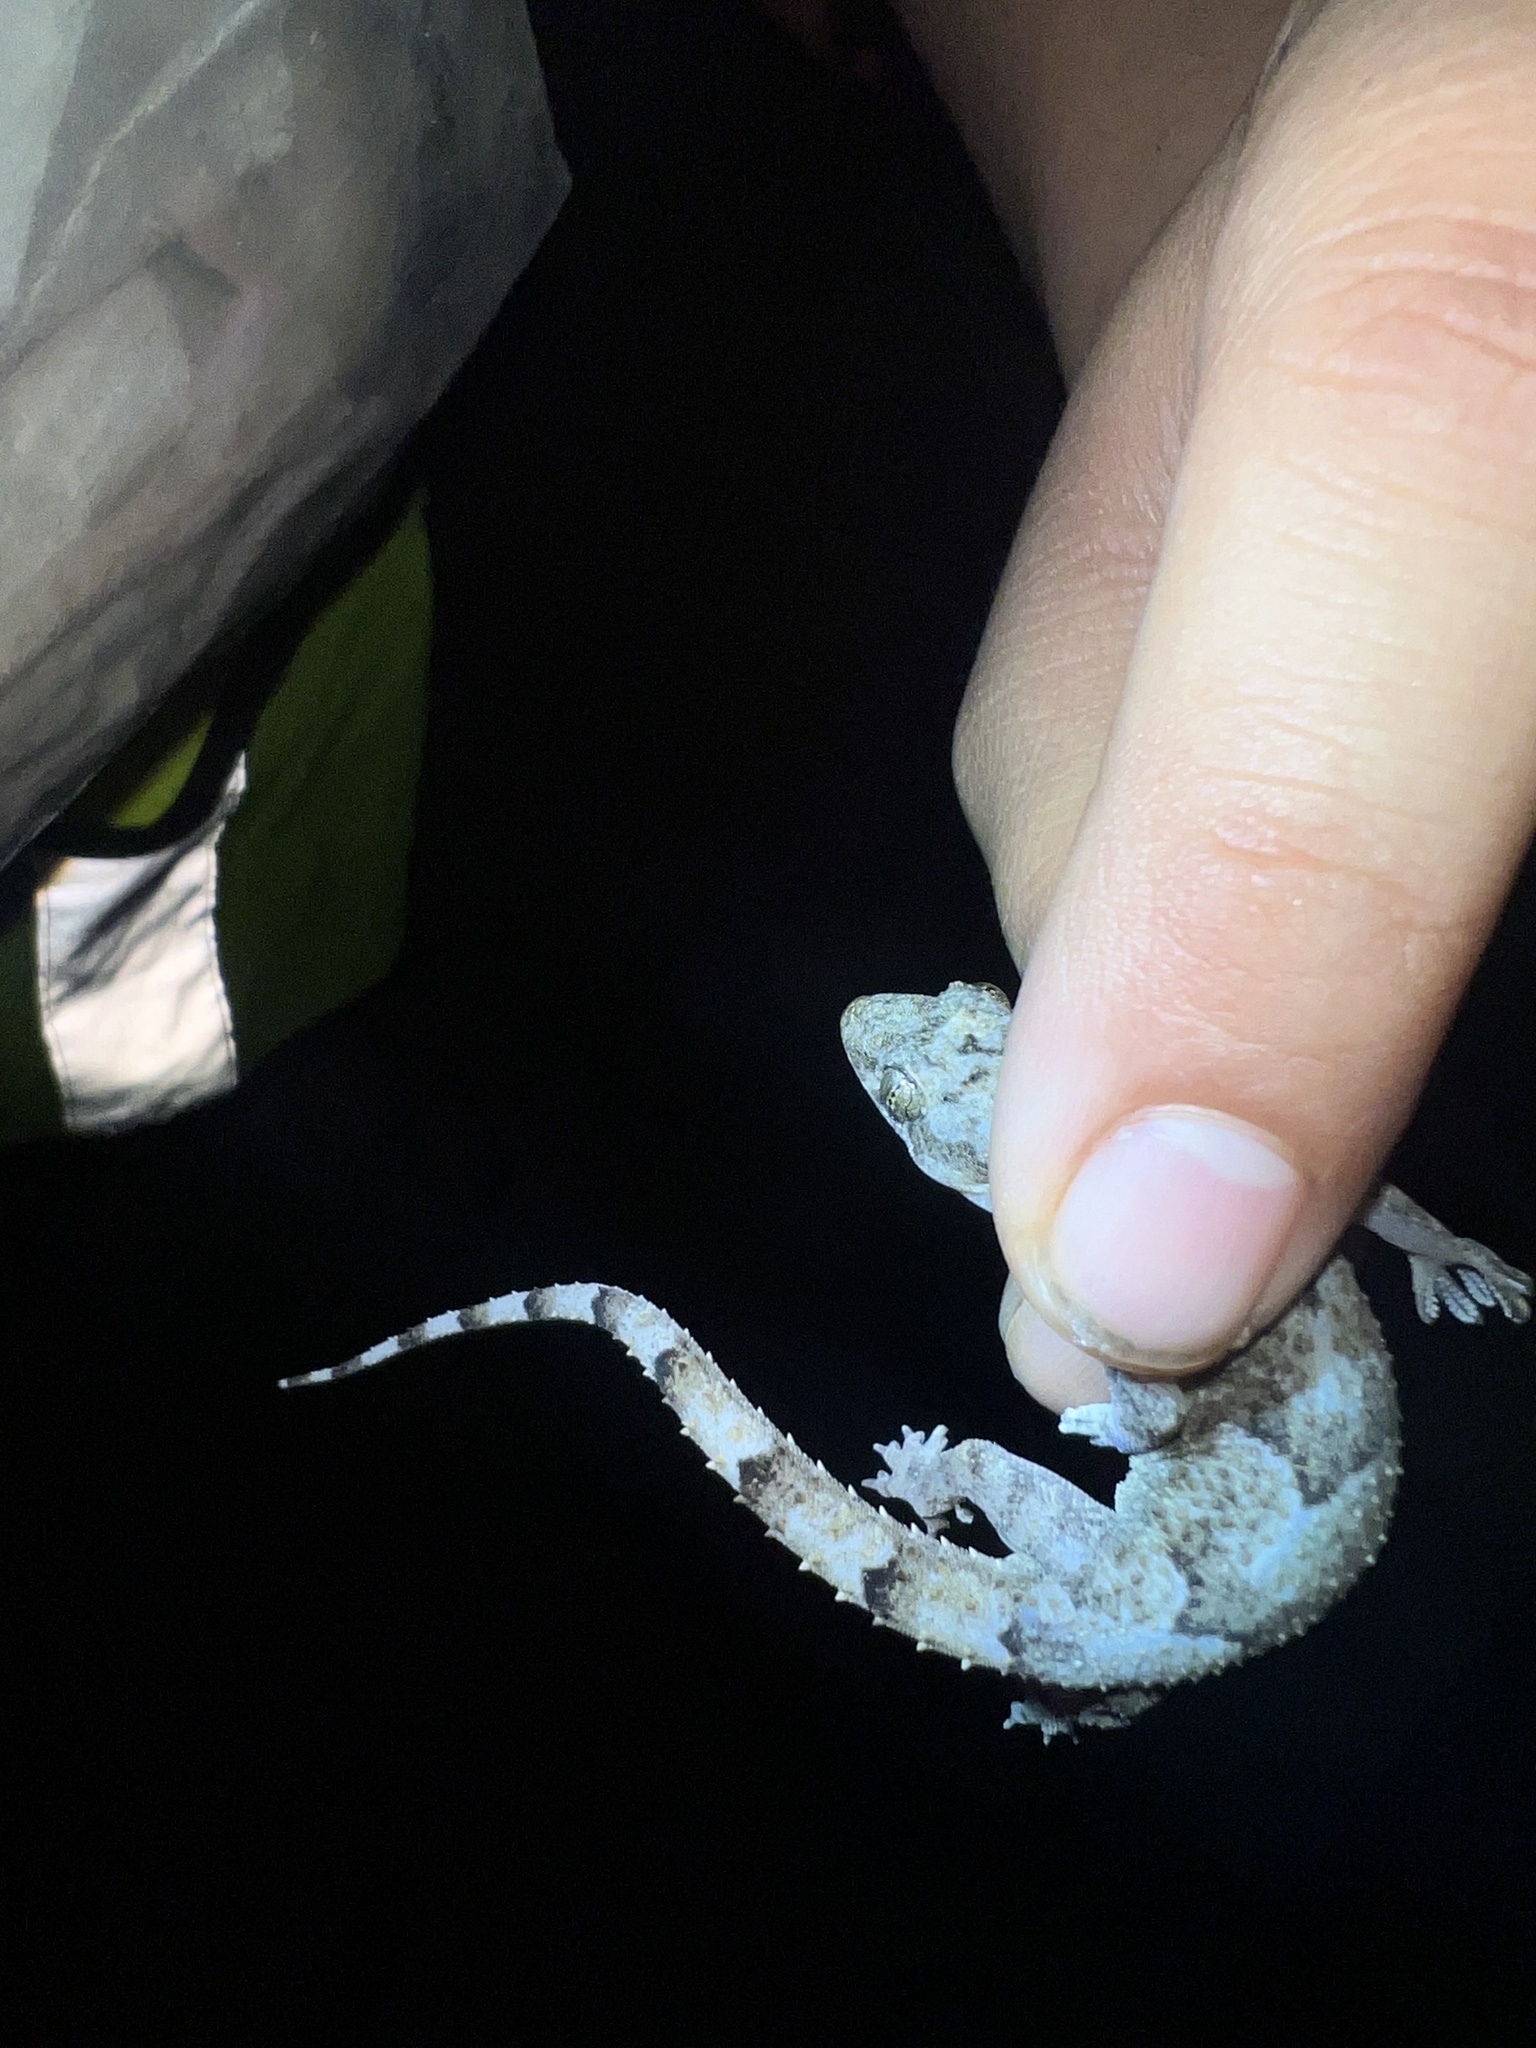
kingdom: Animalia
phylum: Chordata
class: Squamata
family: Gekkonidae
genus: Hemidactylus
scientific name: Hemidactylus mabouia
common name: House gecko
